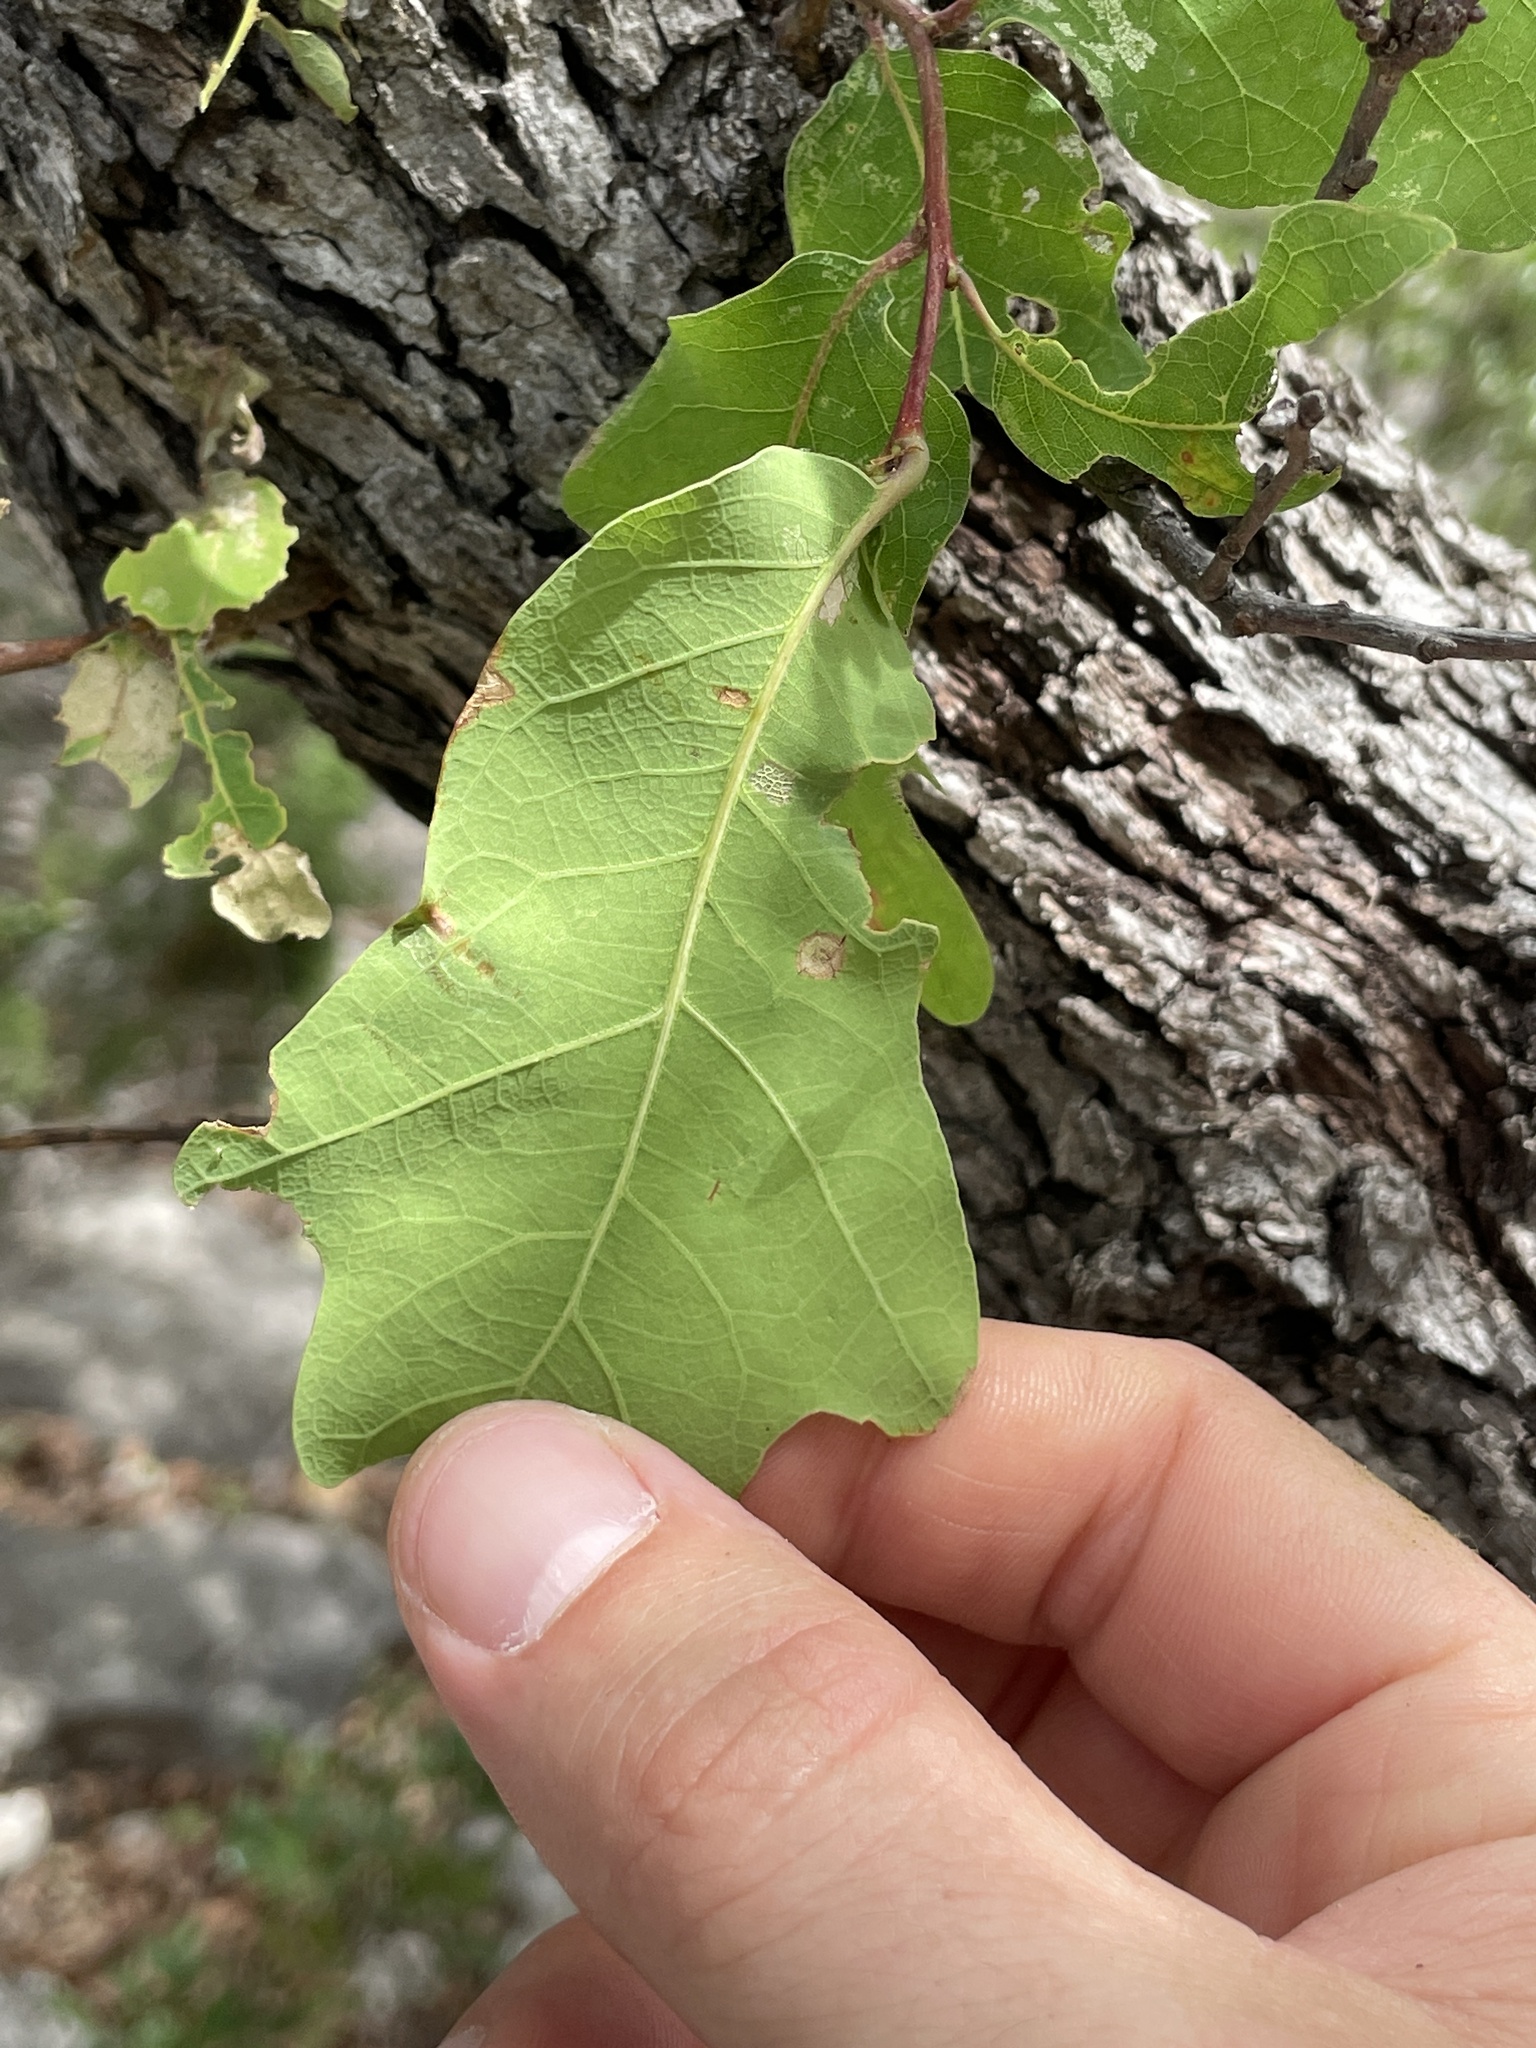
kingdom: Plantae
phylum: Tracheophyta
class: Magnoliopsida
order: Fagales
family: Fagaceae
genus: Quercus
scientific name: Quercus laceyi
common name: Lacey oak
